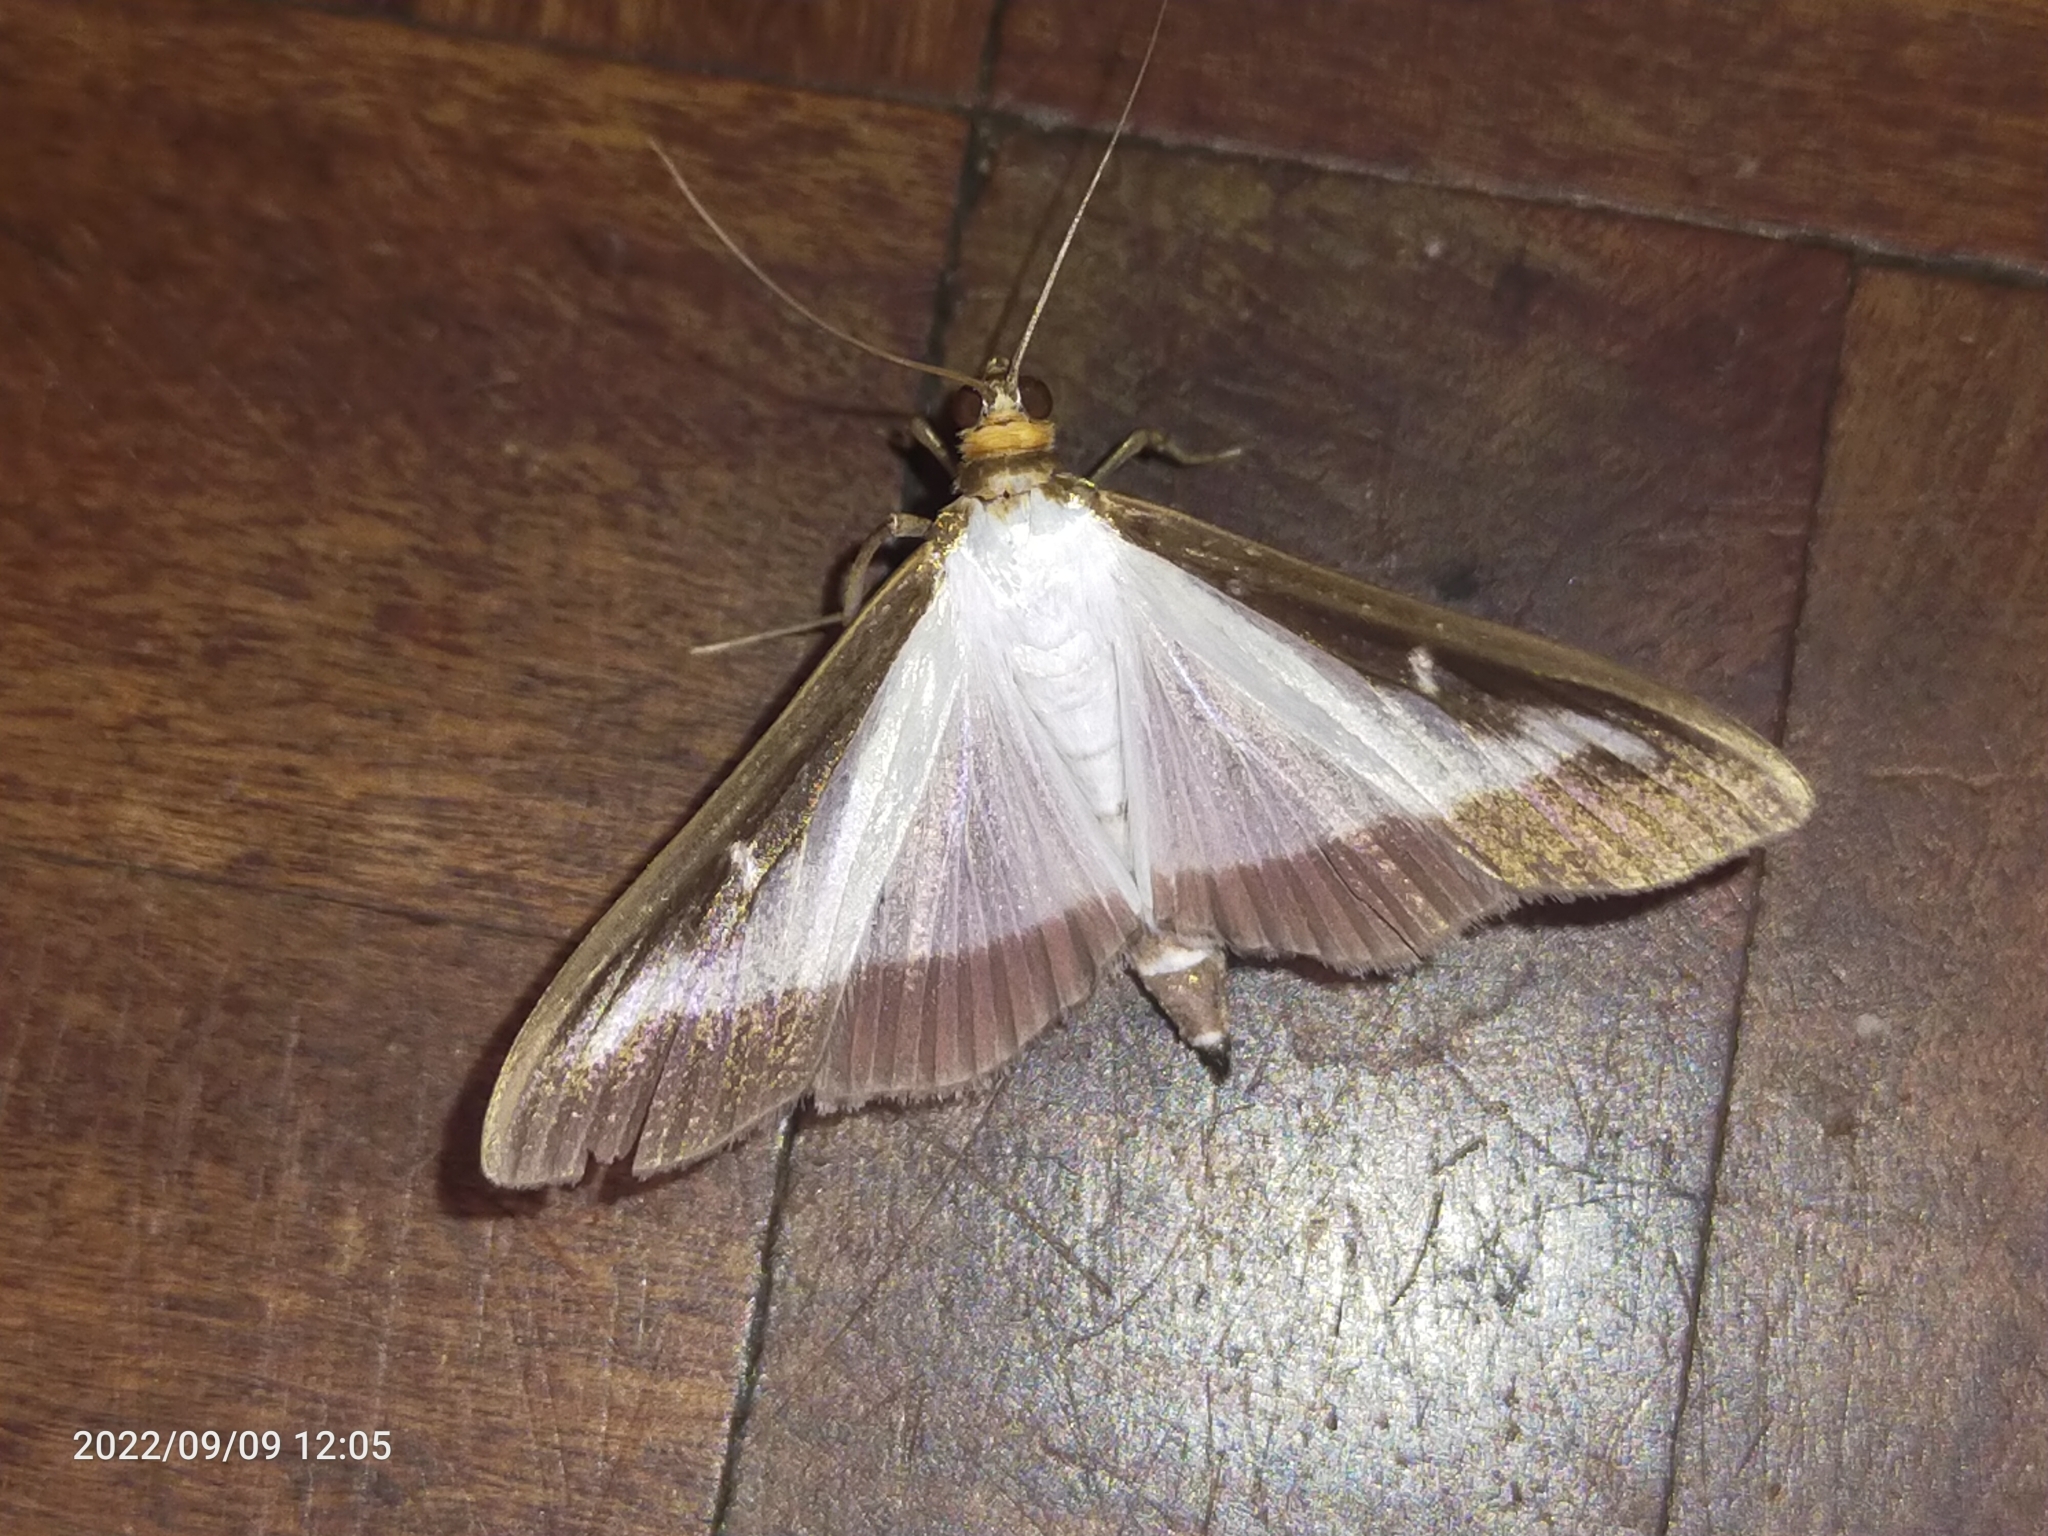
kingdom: Animalia
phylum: Arthropoda
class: Insecta
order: Lepidoptera
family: Crambidae
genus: Cydalima
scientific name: Cydalima perspectalis
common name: Box tree moth
